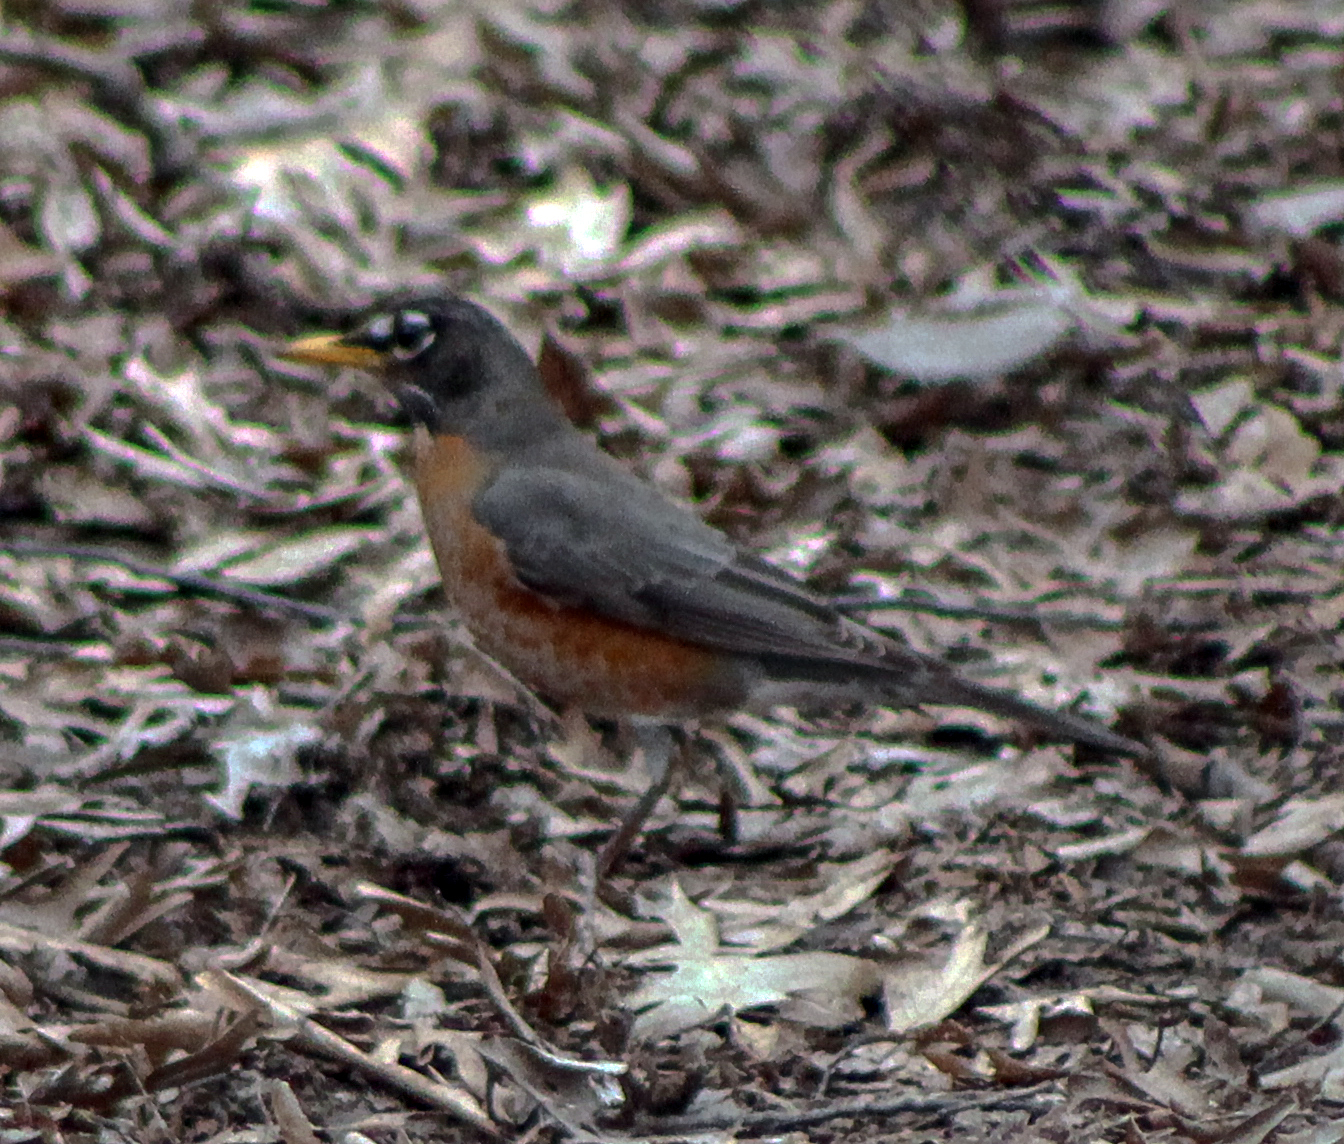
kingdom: Animalia
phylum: Chordata
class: Aves
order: Passeriformes
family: Turdidae
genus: Turdus
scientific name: Turdus migratorius
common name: American robin
